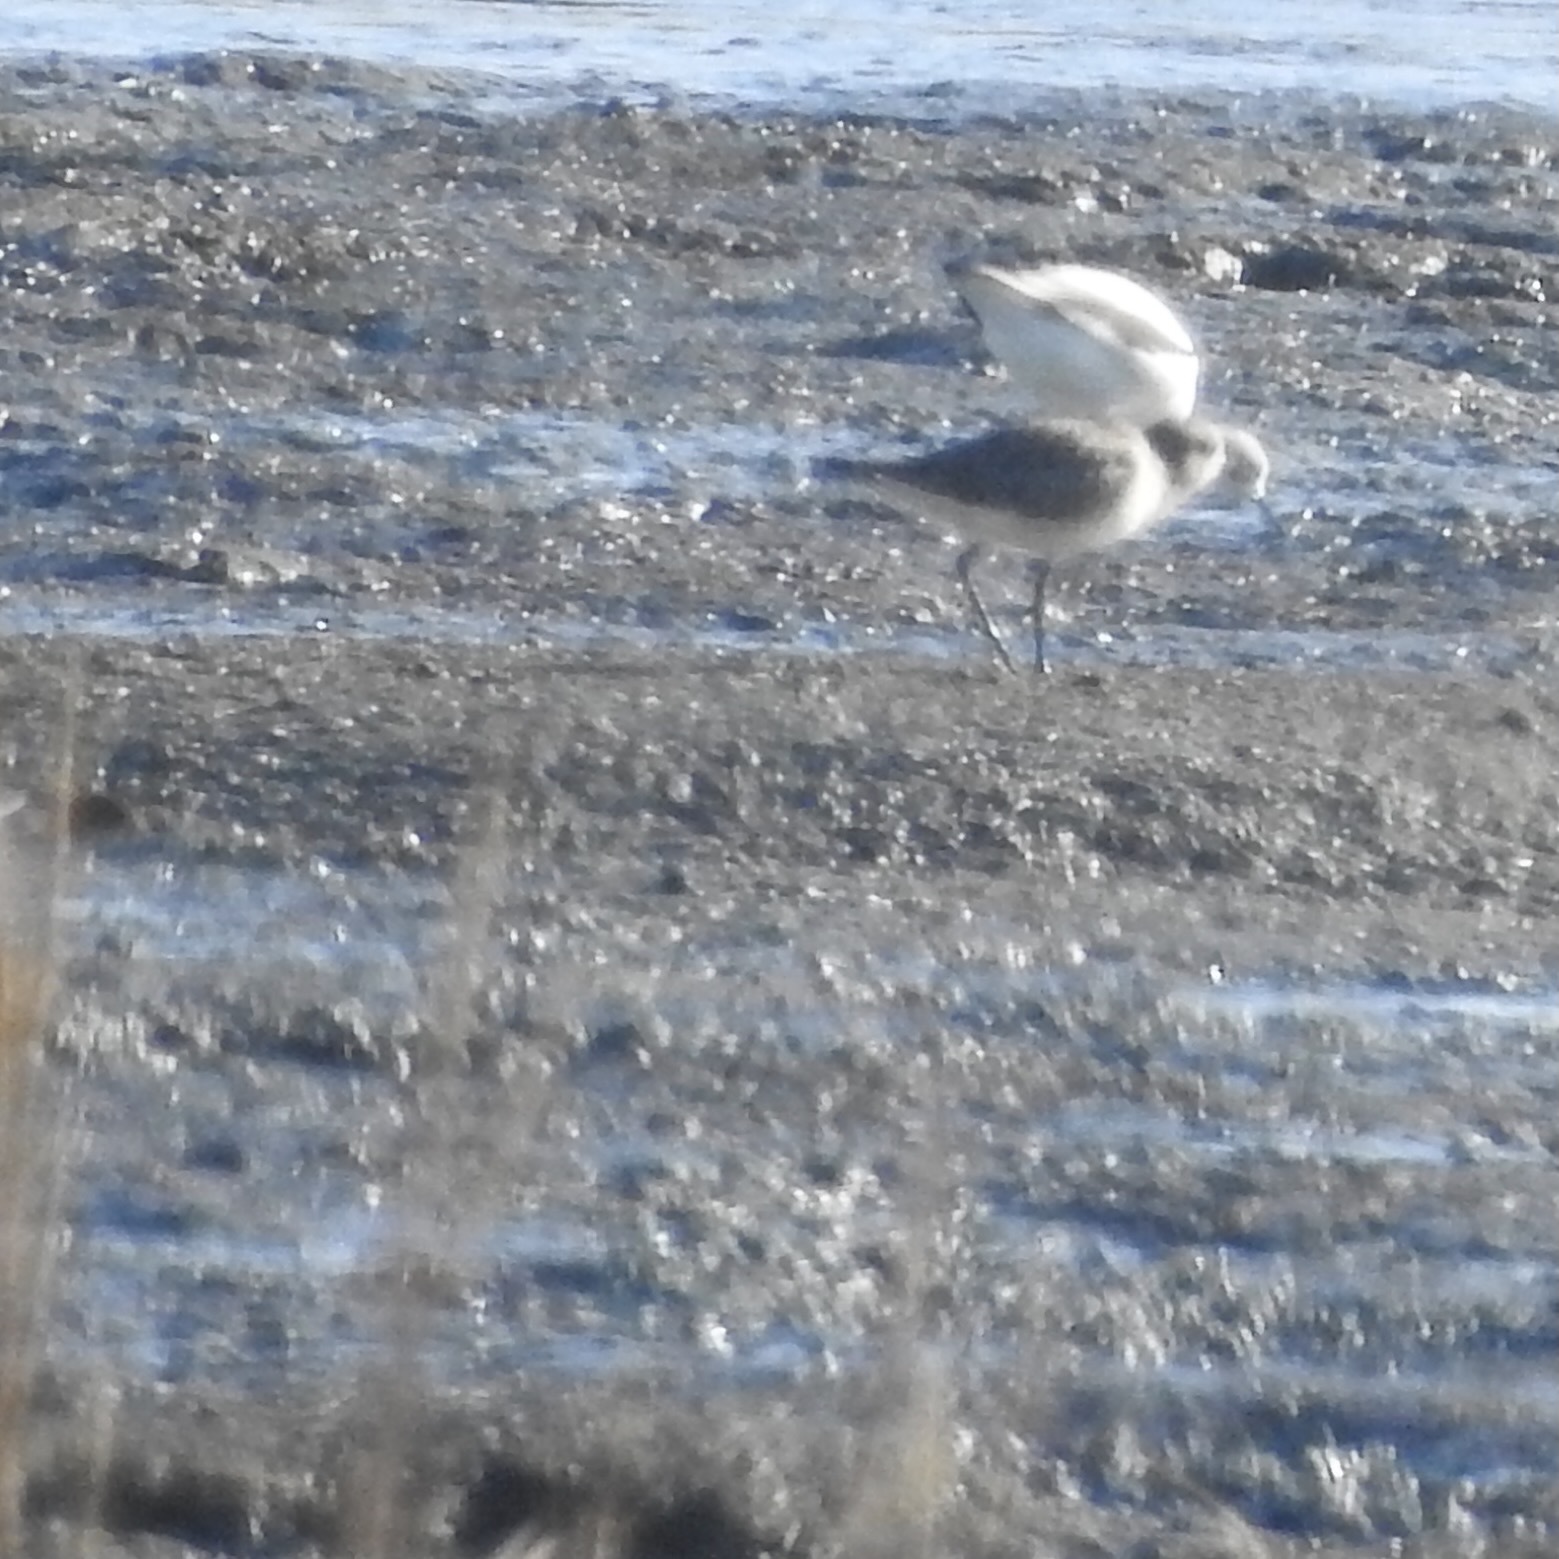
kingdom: Animalia
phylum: Chordata
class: Aves
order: Charadriiformes
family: Charadriidae
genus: Pluvialis
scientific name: Pluvialis squatarola
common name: Grey plover
